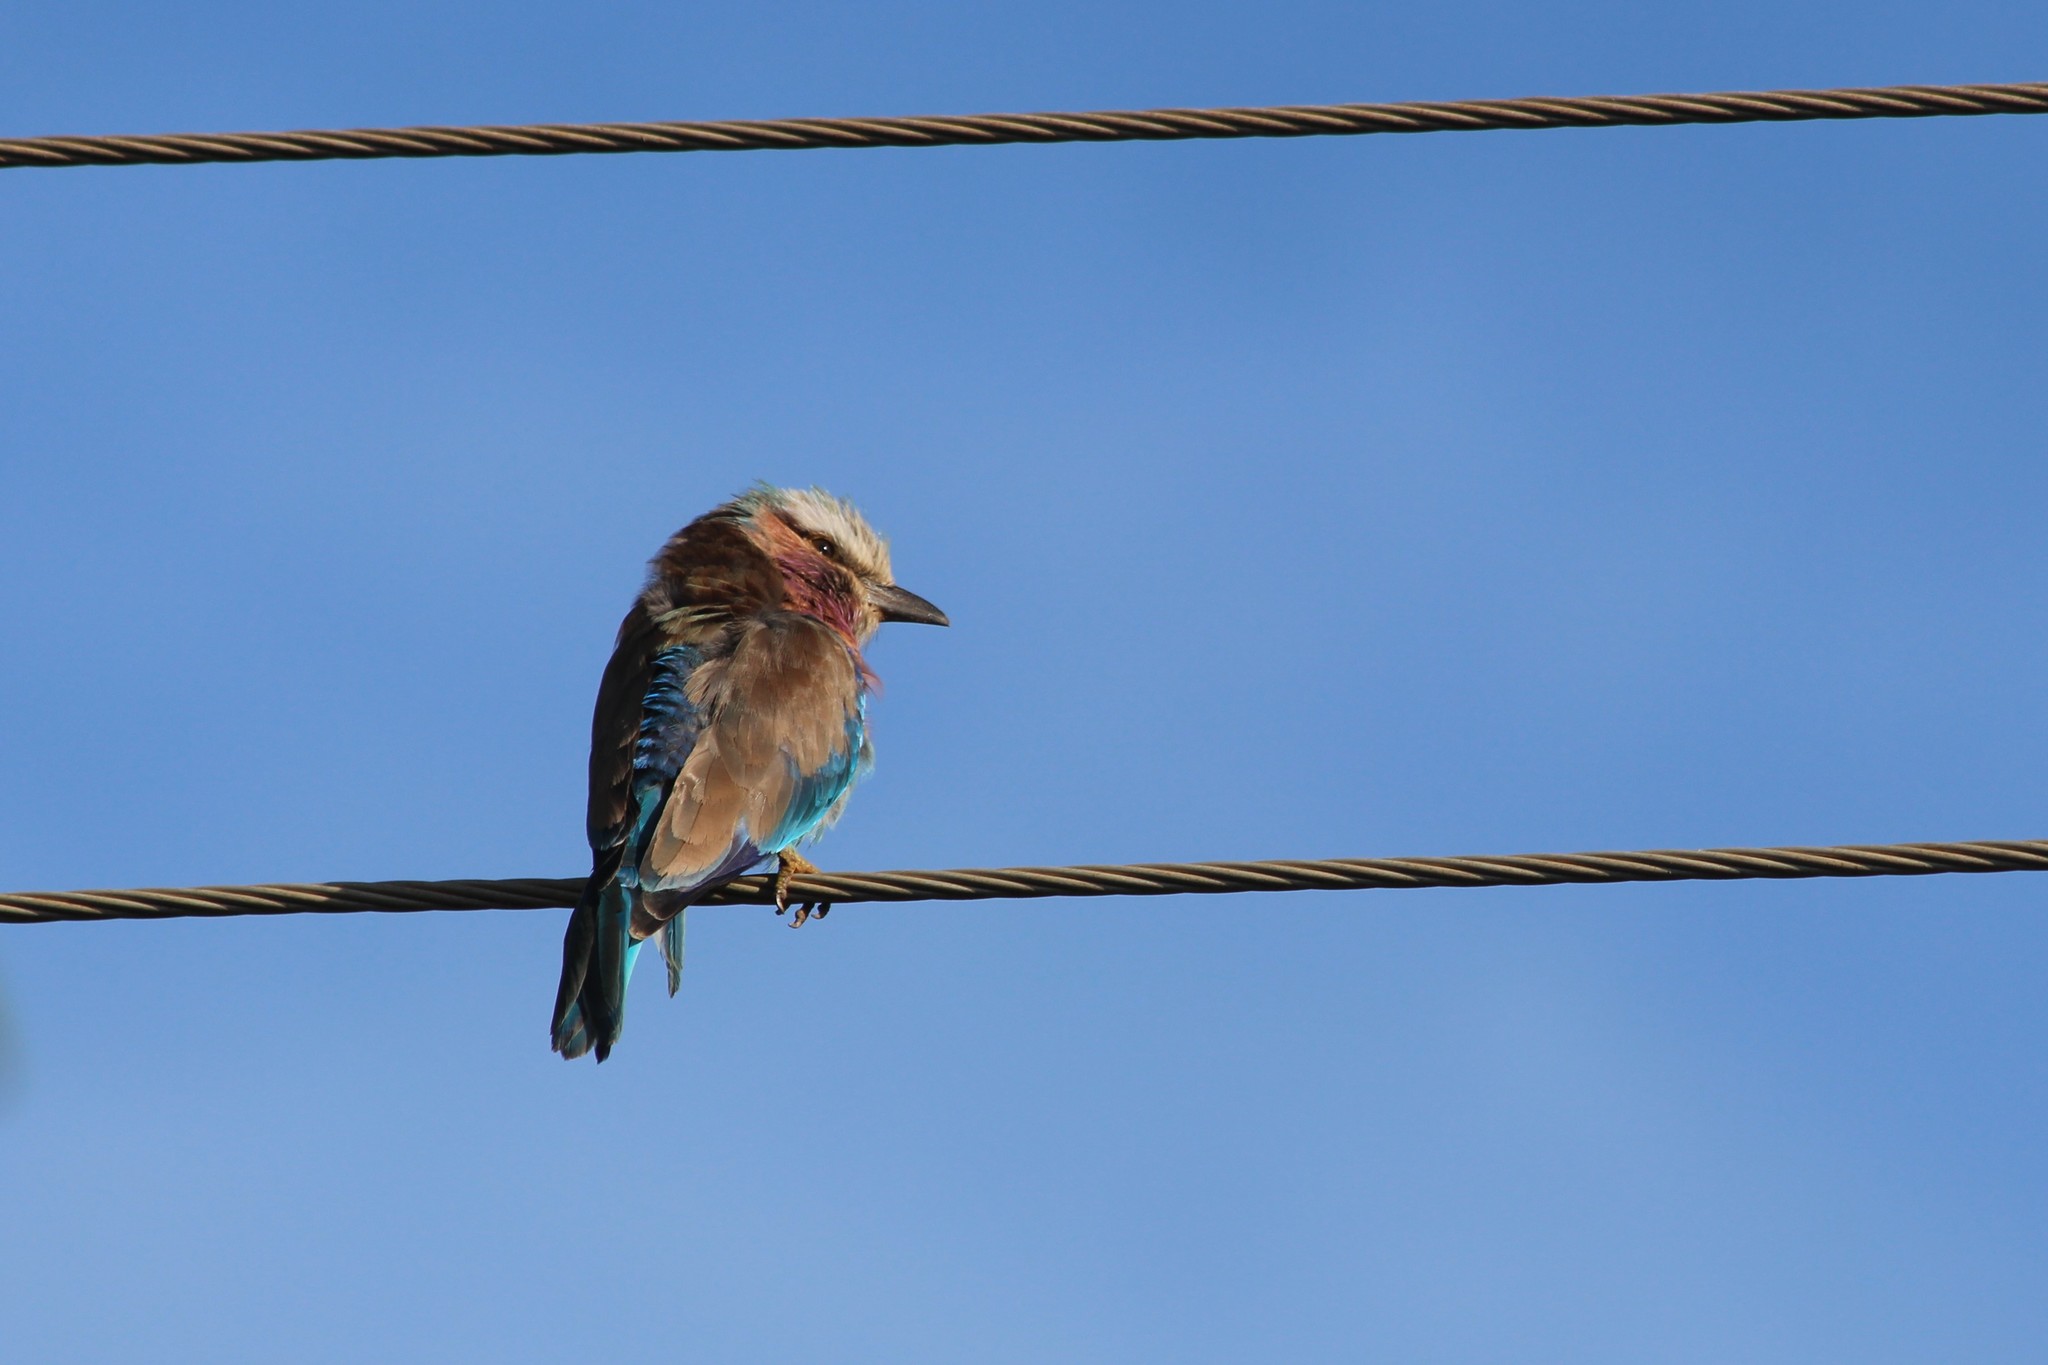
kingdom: Animalia
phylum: Chordata
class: Aves
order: Coraciiformes
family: Coraciidae
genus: Coracias
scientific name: Coracias caudatus
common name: Lilac-breasted roller
